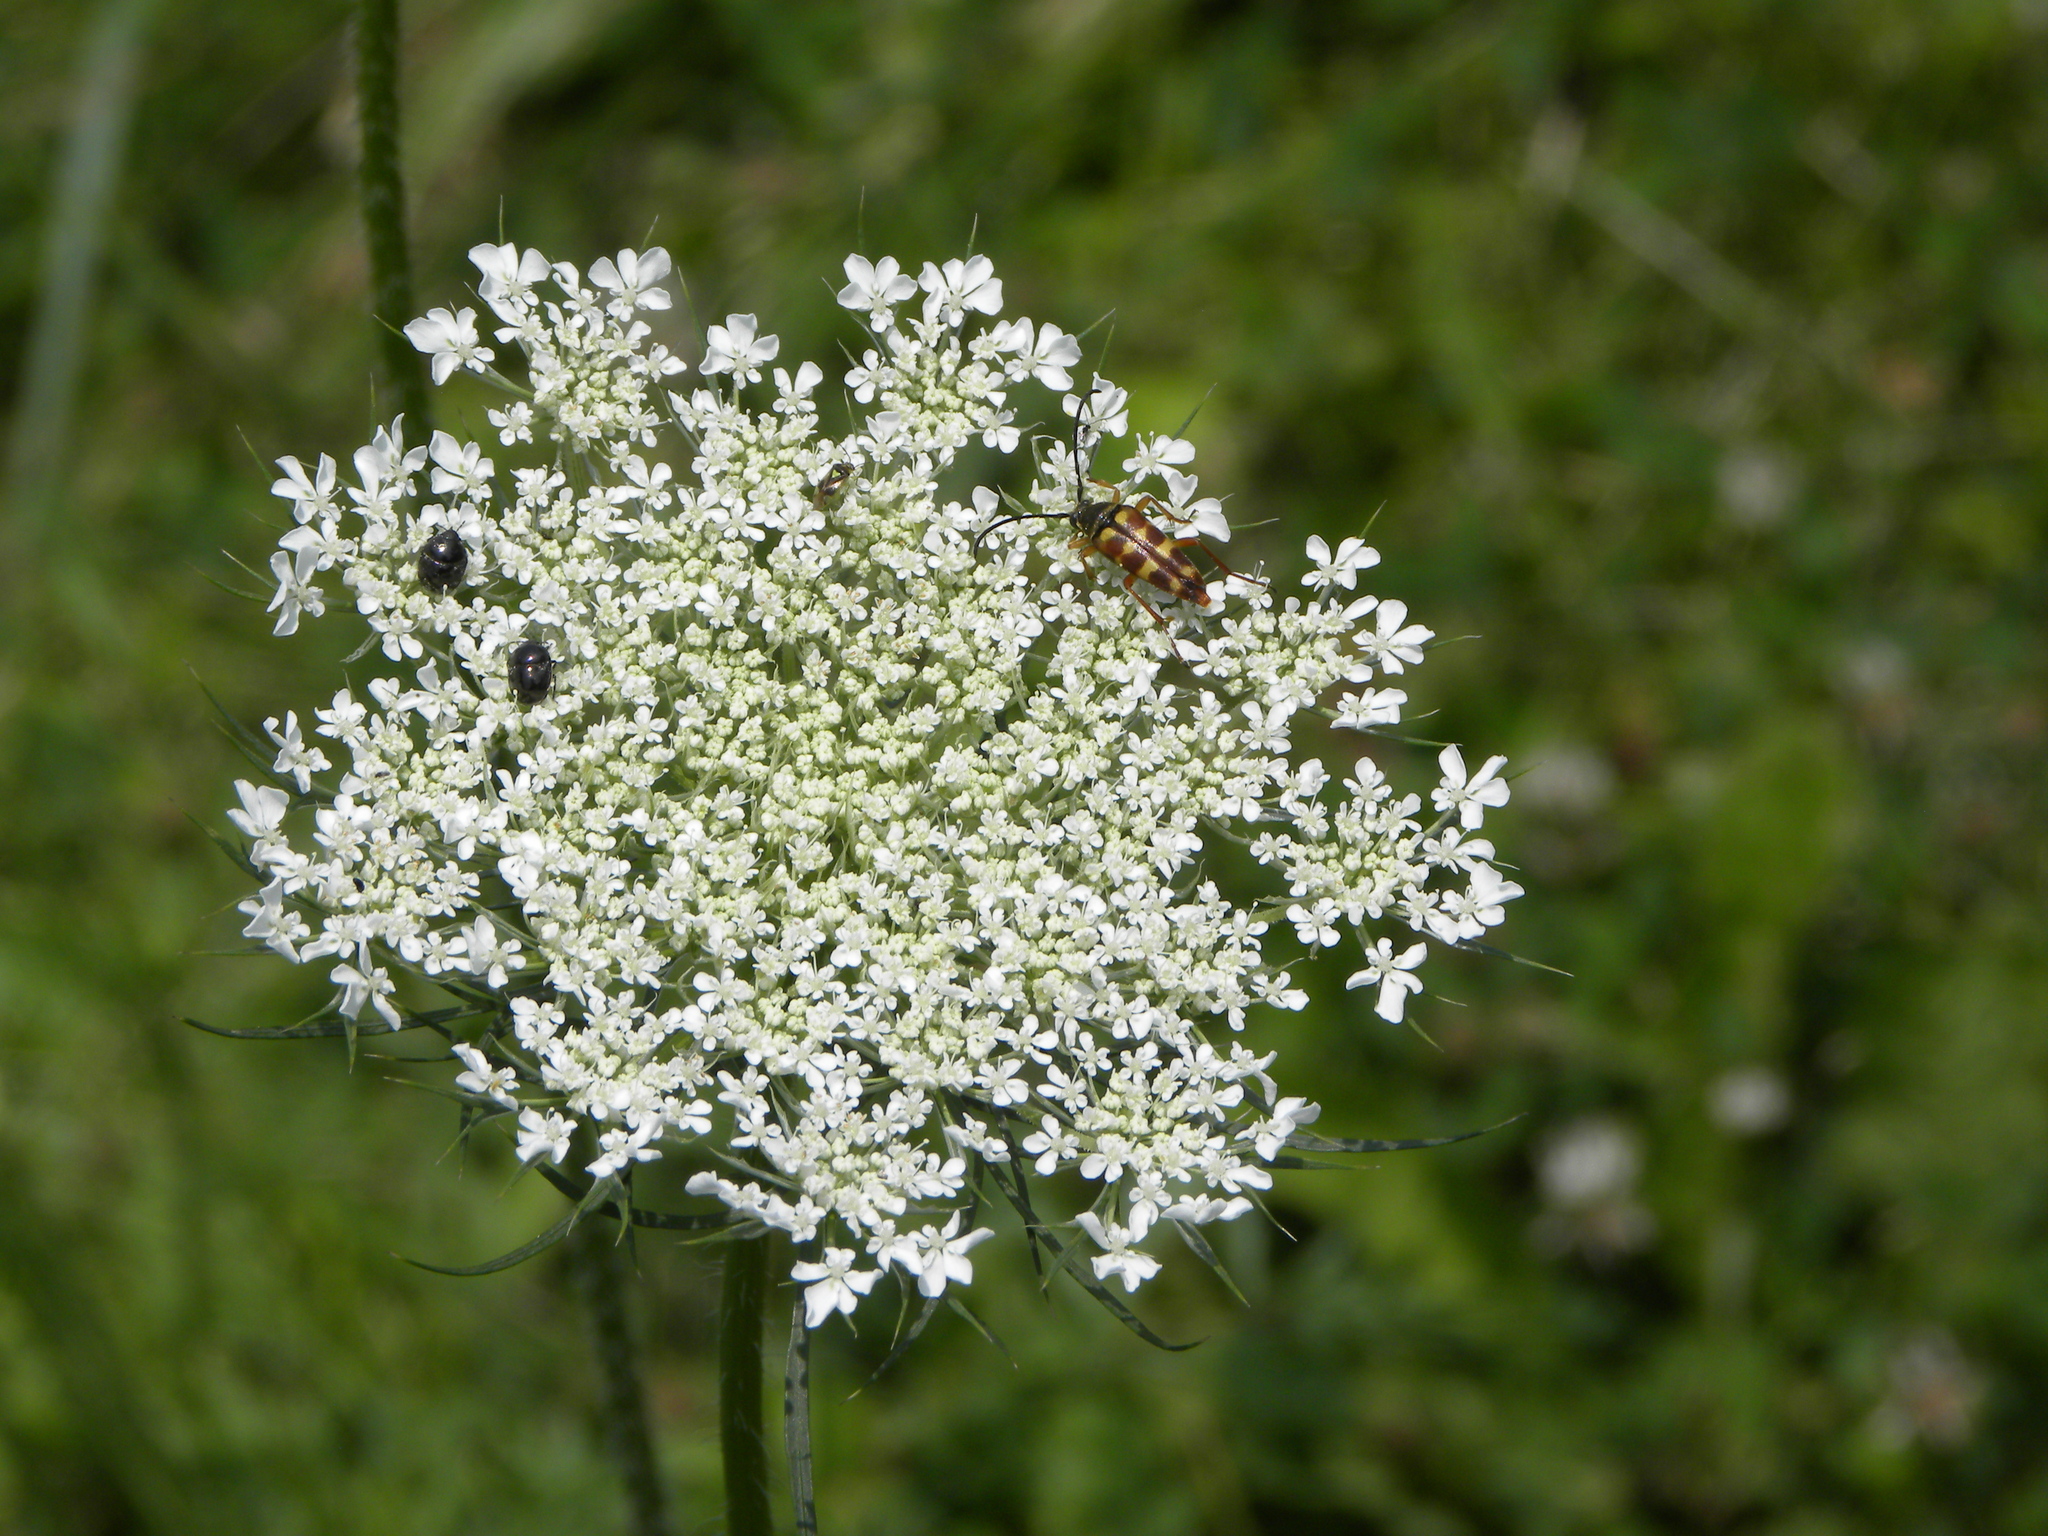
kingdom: Animalia
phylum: Arthropoda
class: Insecta
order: Coleoptera
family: Cerambycidae
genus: Typocerus
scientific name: Typocerus velutinus
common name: Banded longhorn beetle
